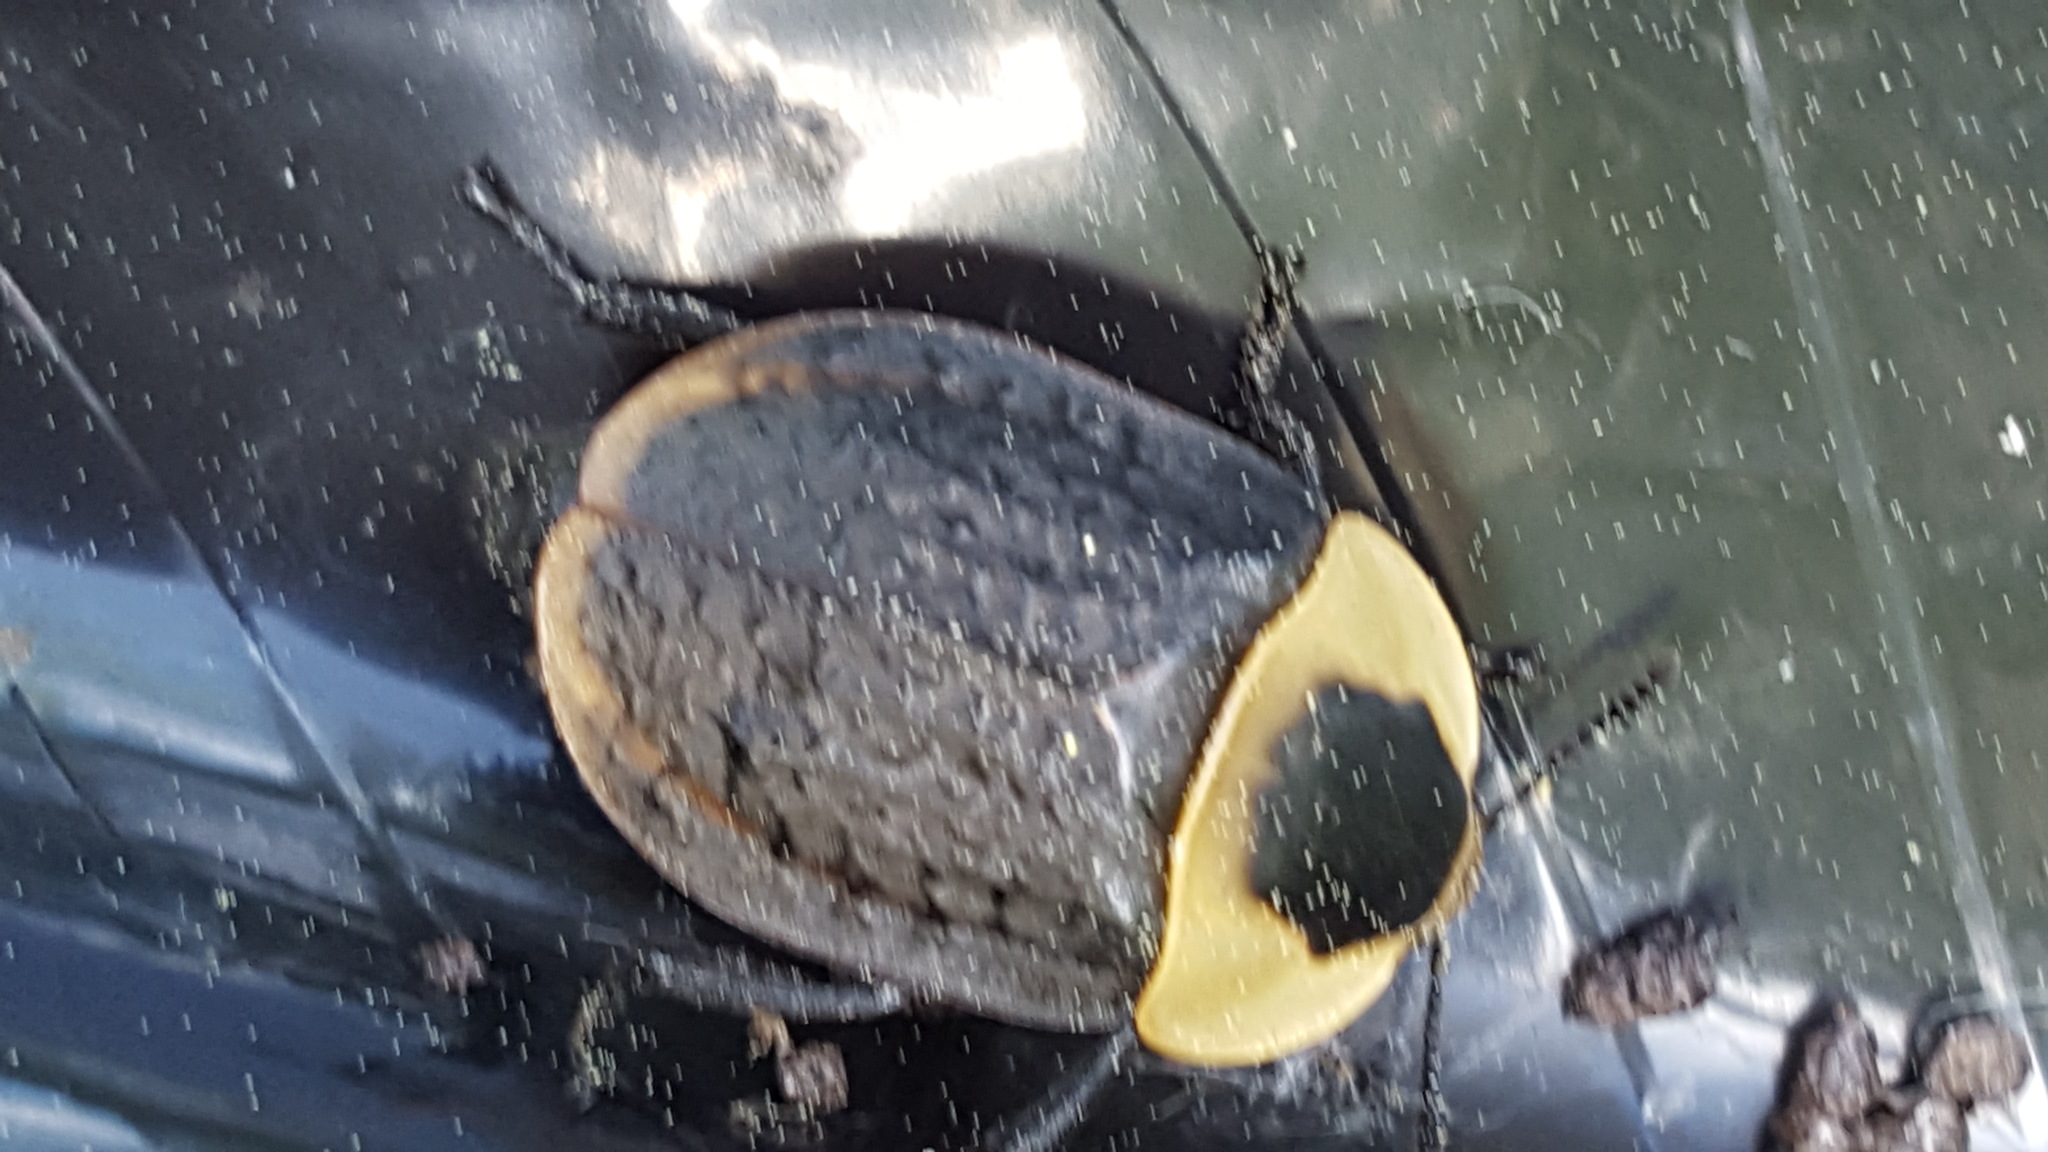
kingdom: Animalia
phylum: Arthropoda
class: Insecta
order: Coleoptera
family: Staphylinidae
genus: Necrophila
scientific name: Necrophila americana
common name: American carrion beetle
